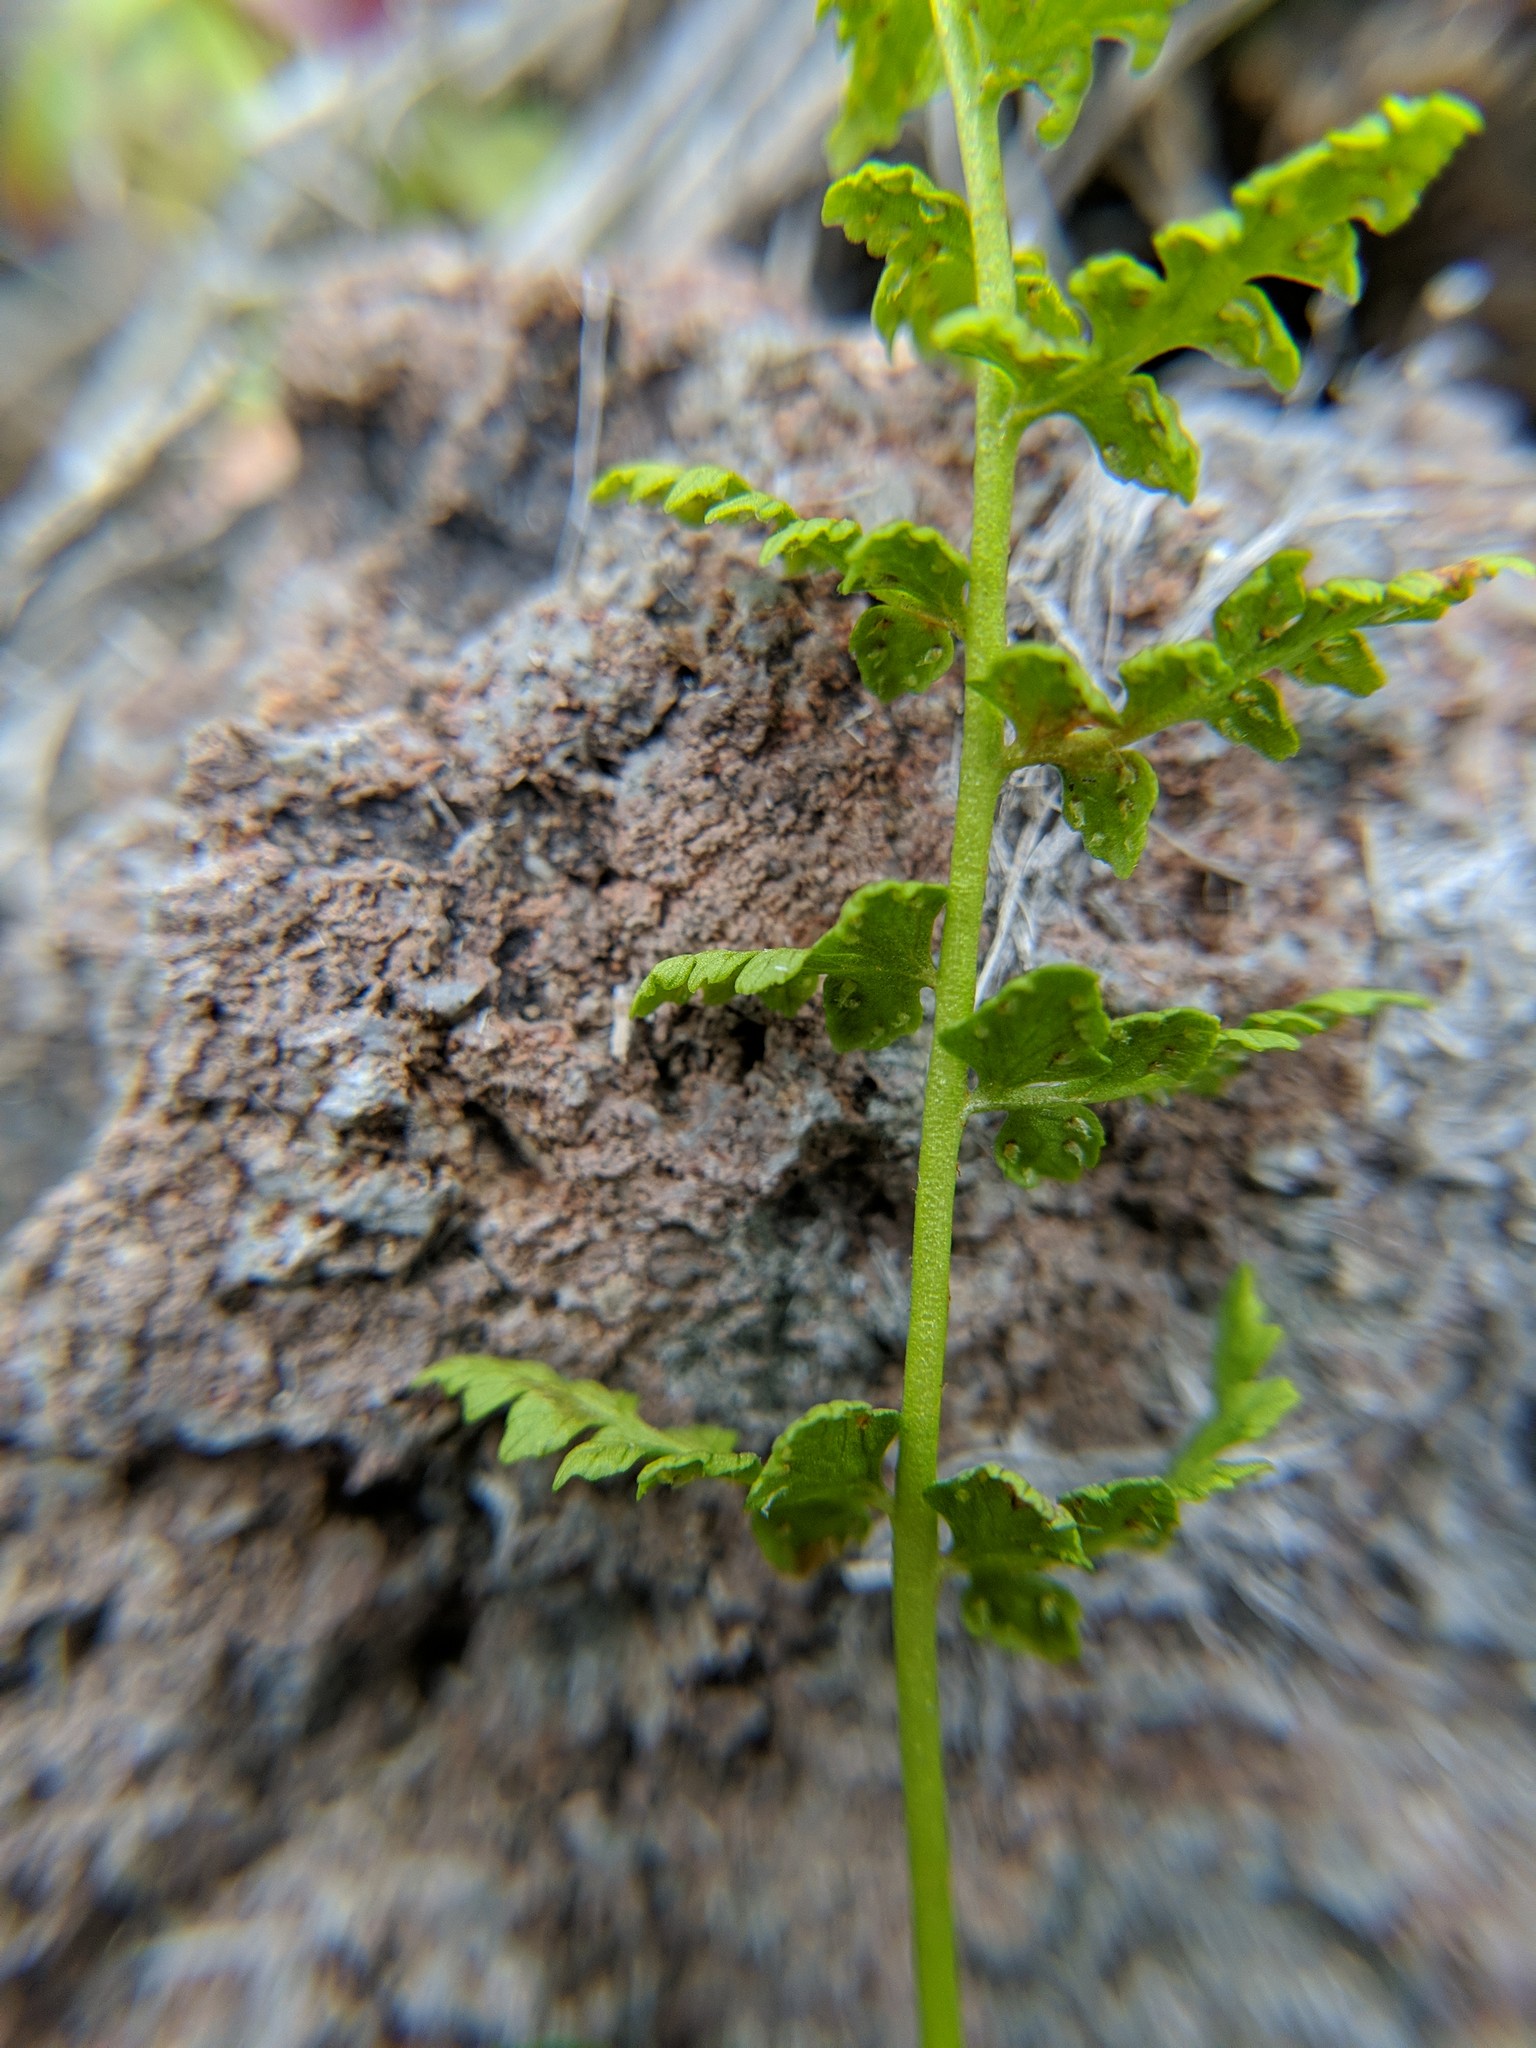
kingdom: Plantae
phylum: Tracheophyta
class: Polypodiopsida
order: Polypodiales
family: Cystopteridaceae
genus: Cystopteris
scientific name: Cystopteris fragilis
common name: Brittle bladder fern
